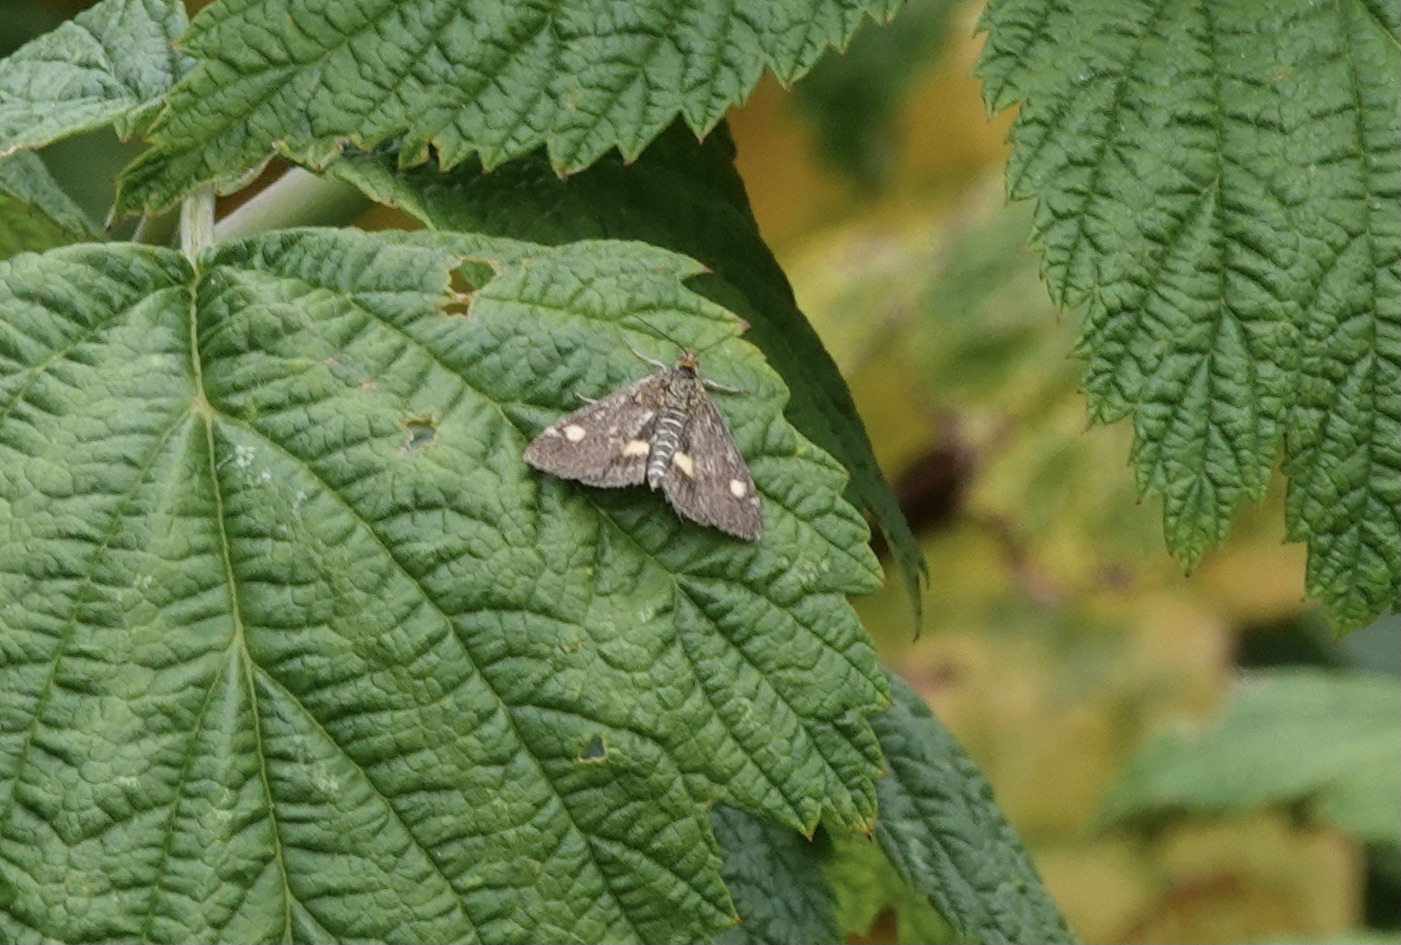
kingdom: Animalia
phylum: Arthropoda
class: Insecta
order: Lepidoptera
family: Crambidae
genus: Pyrausta
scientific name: Pyrausta aurata
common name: Small purple & gold
